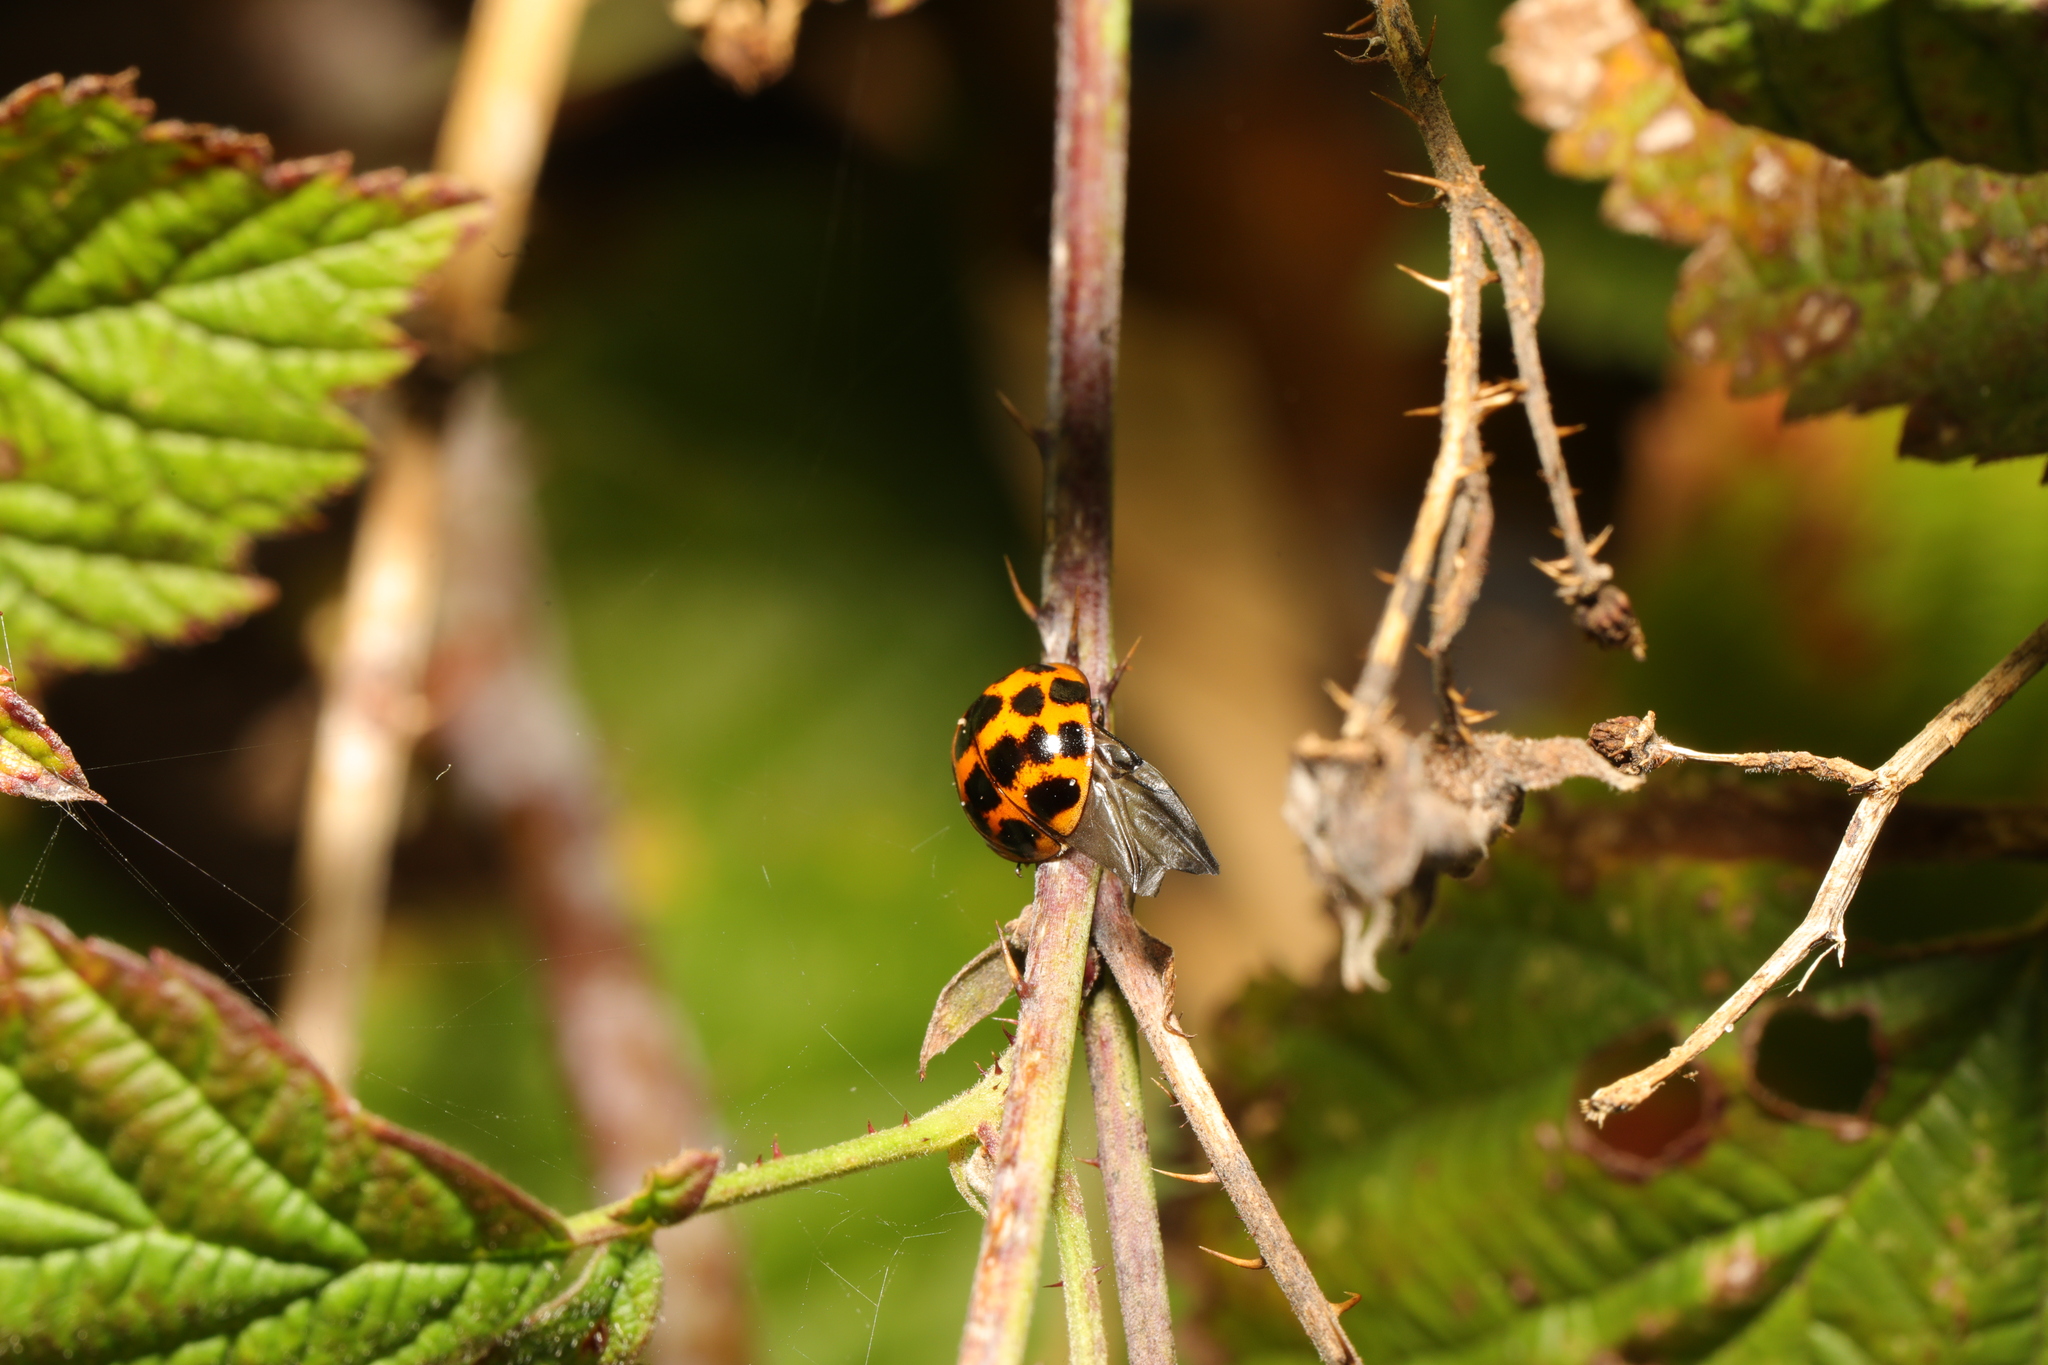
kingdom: Animalia
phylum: Arthropoda
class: Insecta
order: Coleoptera
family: Coccinellidae
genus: Harmonia
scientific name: Harmonia axyridis
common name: Harlequin ladybird
